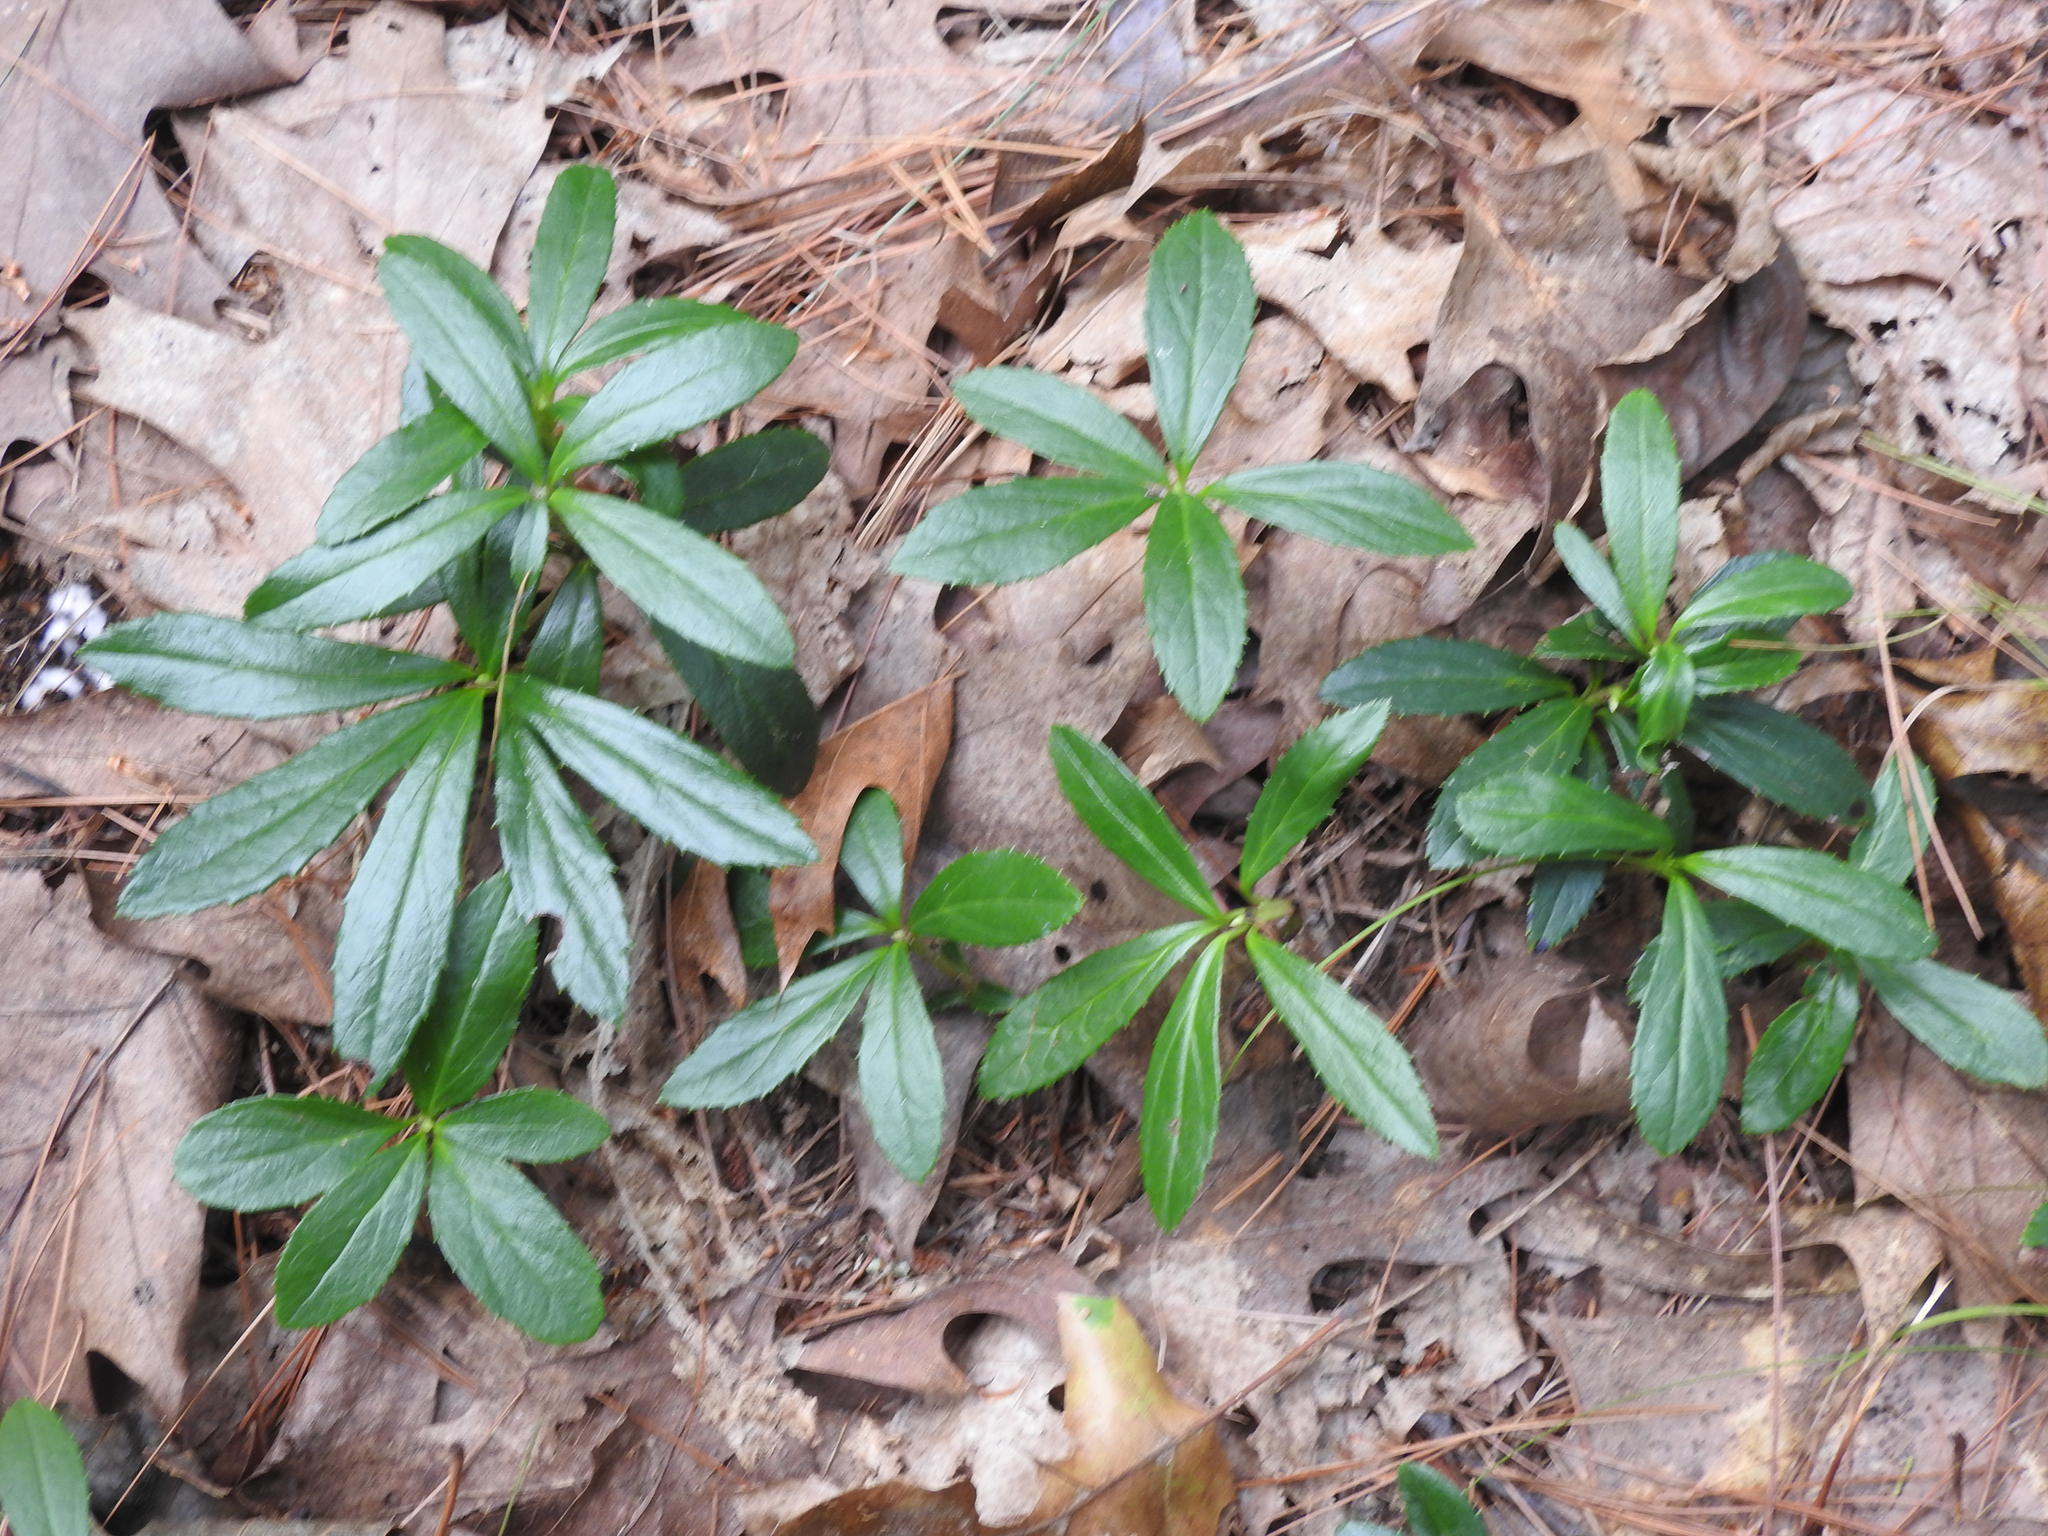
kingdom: Plantae
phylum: Tracheophyta
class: Magnoliopsida
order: Ericales
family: Ericaceae
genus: Chimaphila
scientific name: Chimaphila umbellata
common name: Pipsissewa
